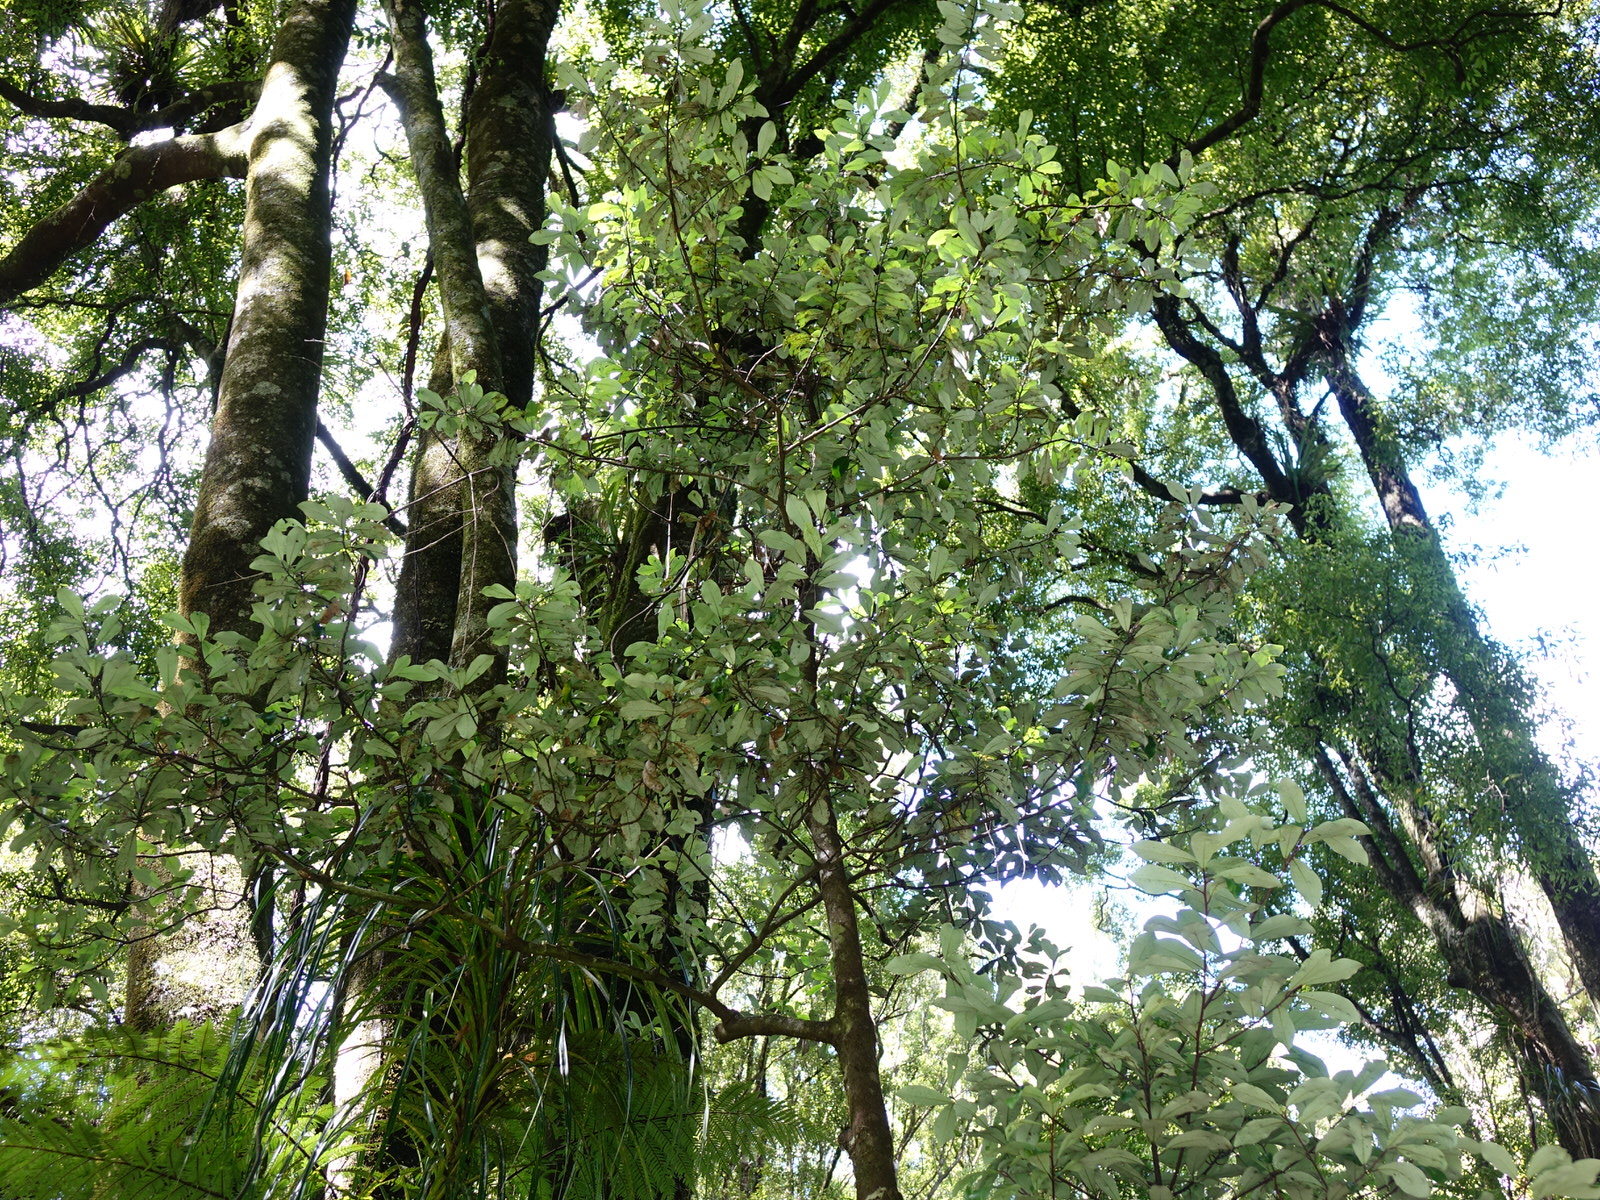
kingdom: Plantae
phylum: Tracheophyta
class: Magnoliopsida
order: Canellales
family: Winteraceae
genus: Pseudowintera
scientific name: Pseudowintera axillaris
